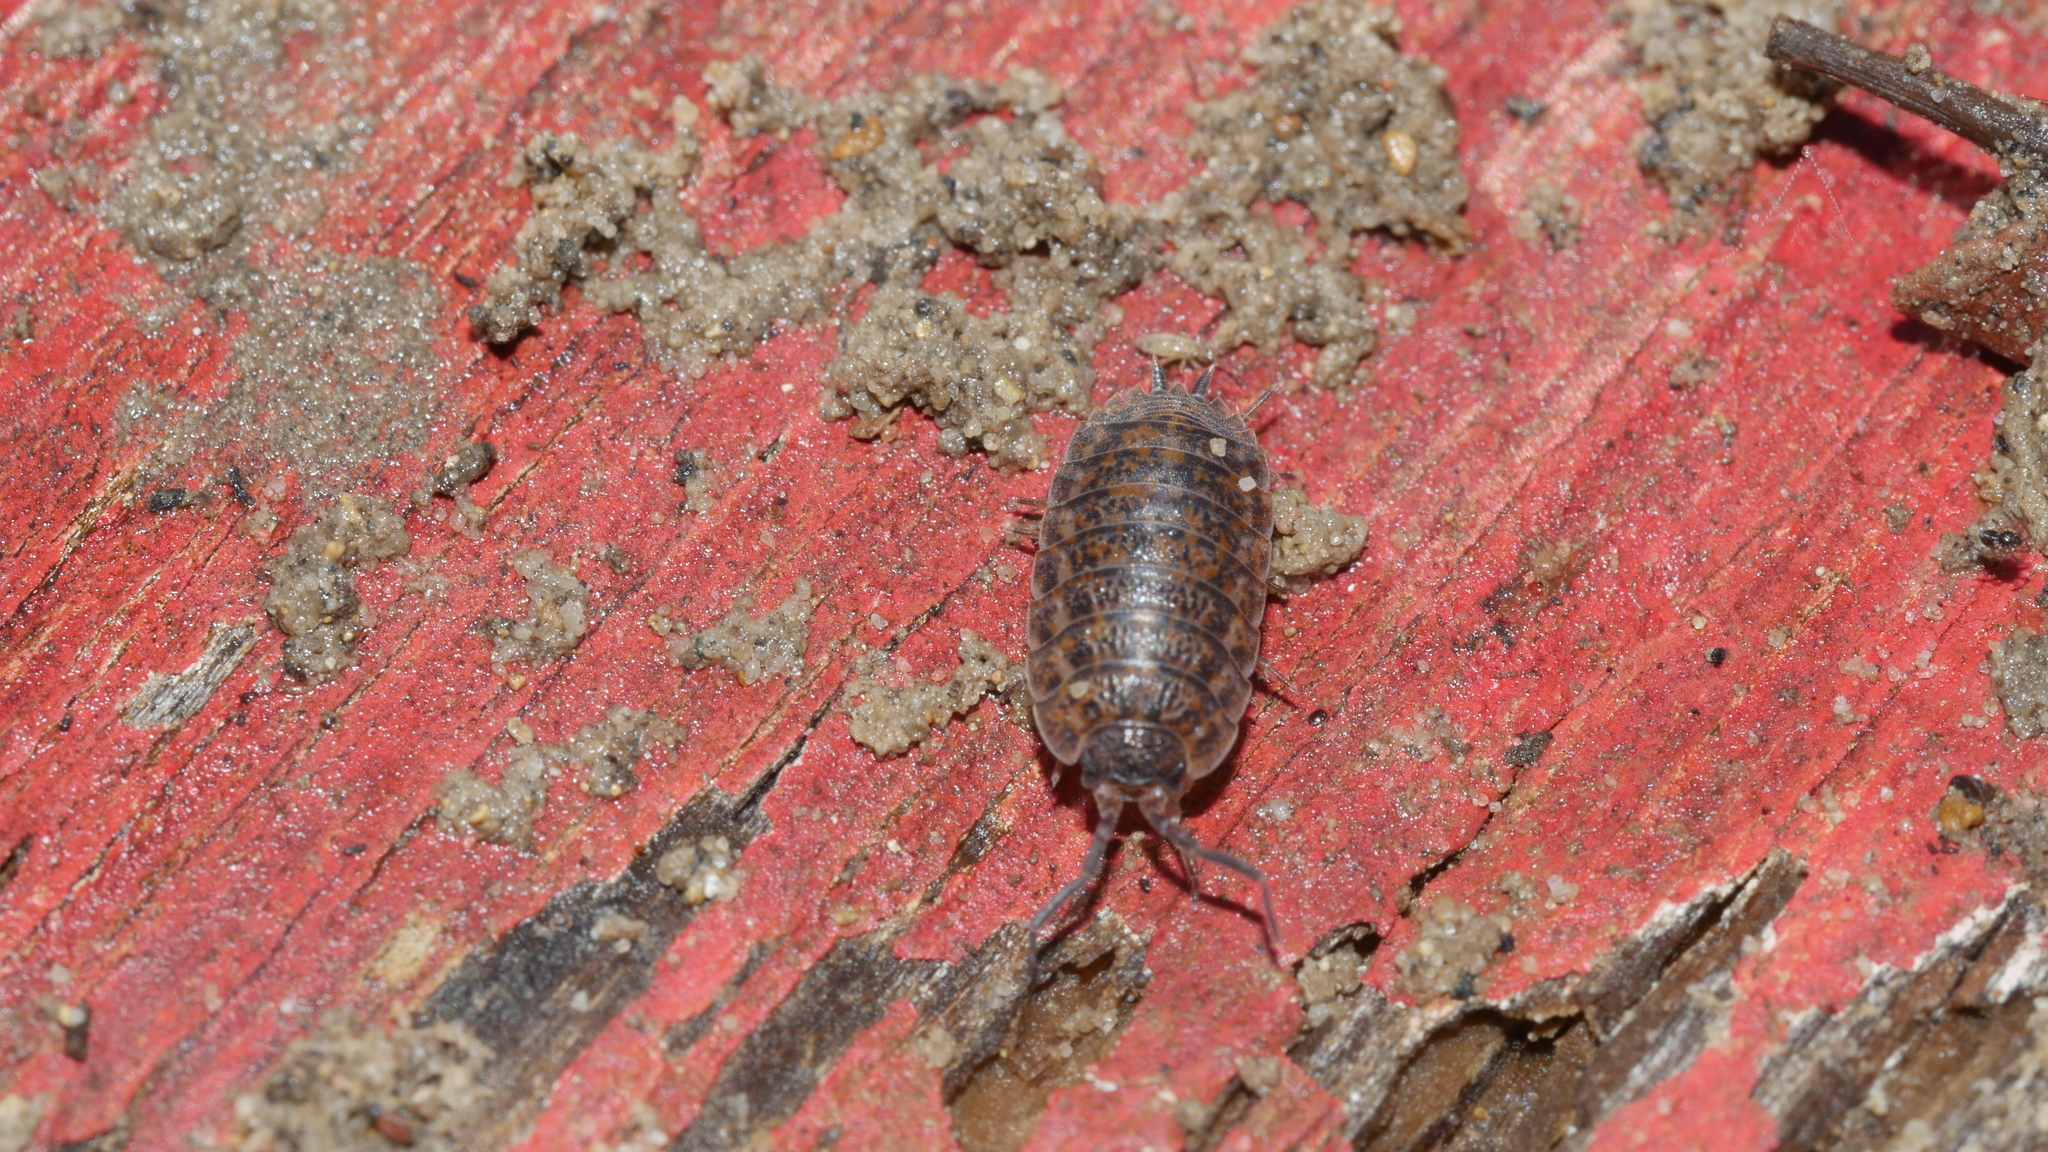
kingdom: Animalia
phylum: Arthropoda
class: Malacostraca
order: Isopoda
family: Trachelipodidae
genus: Trachelipus
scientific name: Trachelipus rathkii
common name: Isopod
